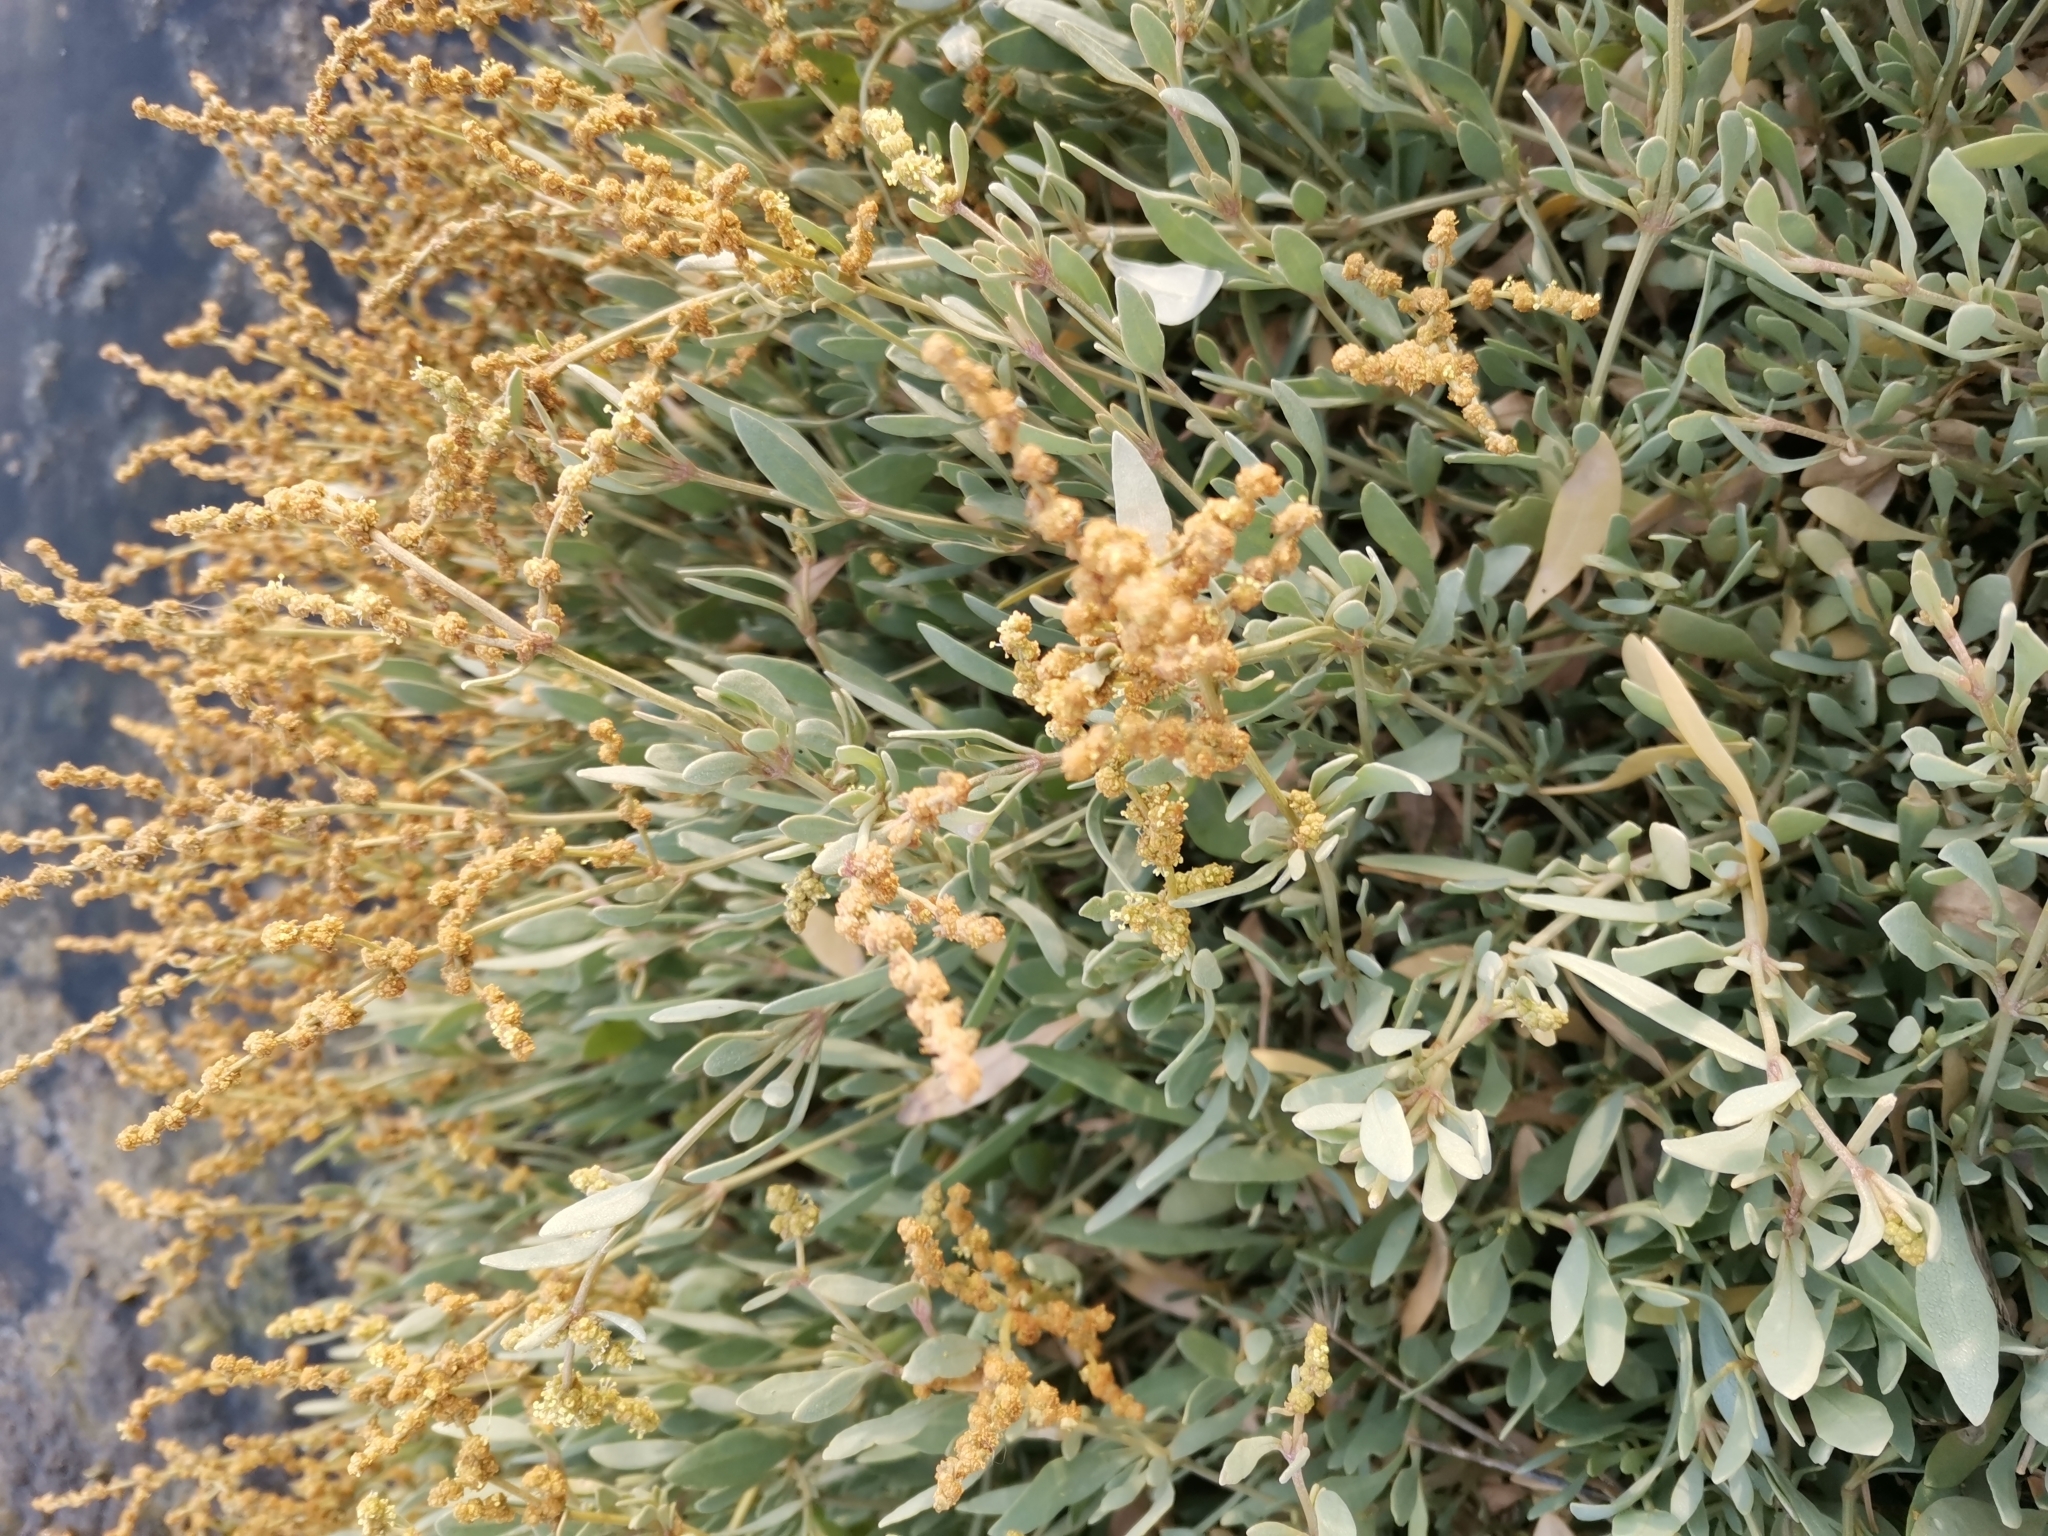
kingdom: Plantae
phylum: Tracheophyta
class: Magnoliopsida
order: Caryophyllales
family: Amaranthaceae
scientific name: Amaranthaceae
